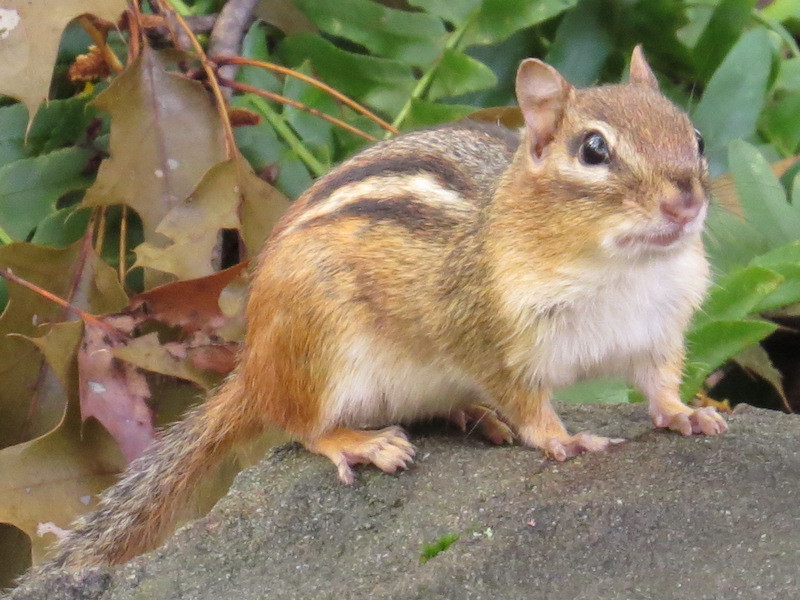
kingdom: Animalia
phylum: Chordata
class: Mammalia
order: Rodentia
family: Sciuridae
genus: Tamias
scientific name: Tamias striatus
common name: Eastern chipmunk
